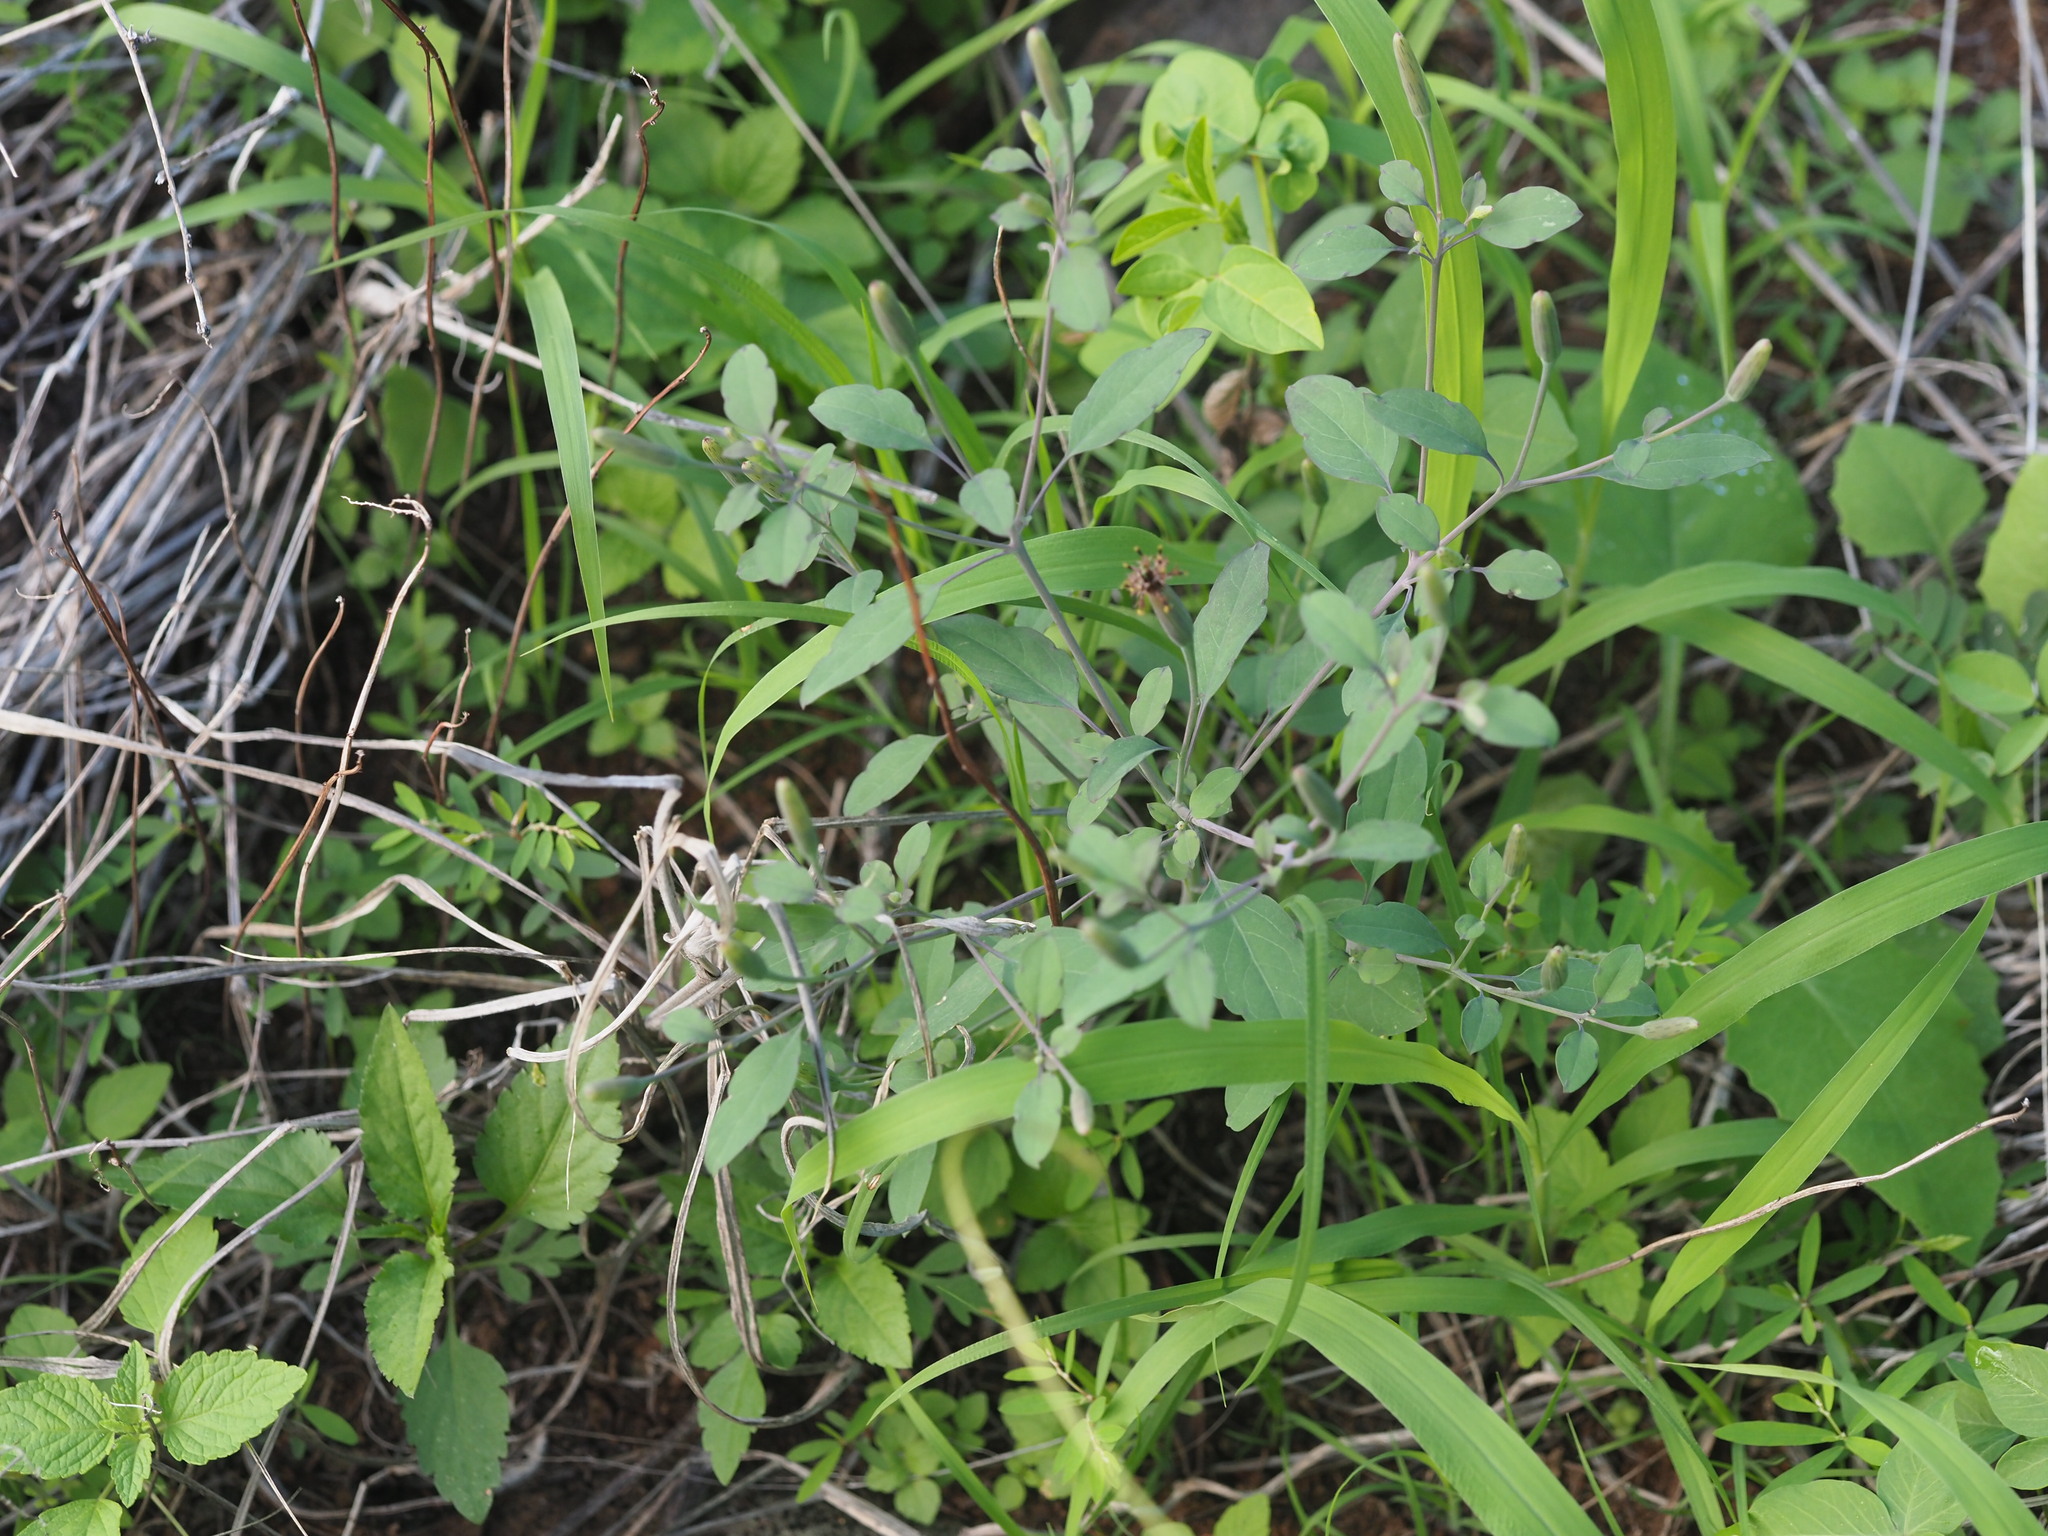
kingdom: Plantae
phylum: Tracheophyta
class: Magnoliopsida
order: Asterales
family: Asteraceae
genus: Porophyllum
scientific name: Porophyllum ruderale
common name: Yerba porosa
